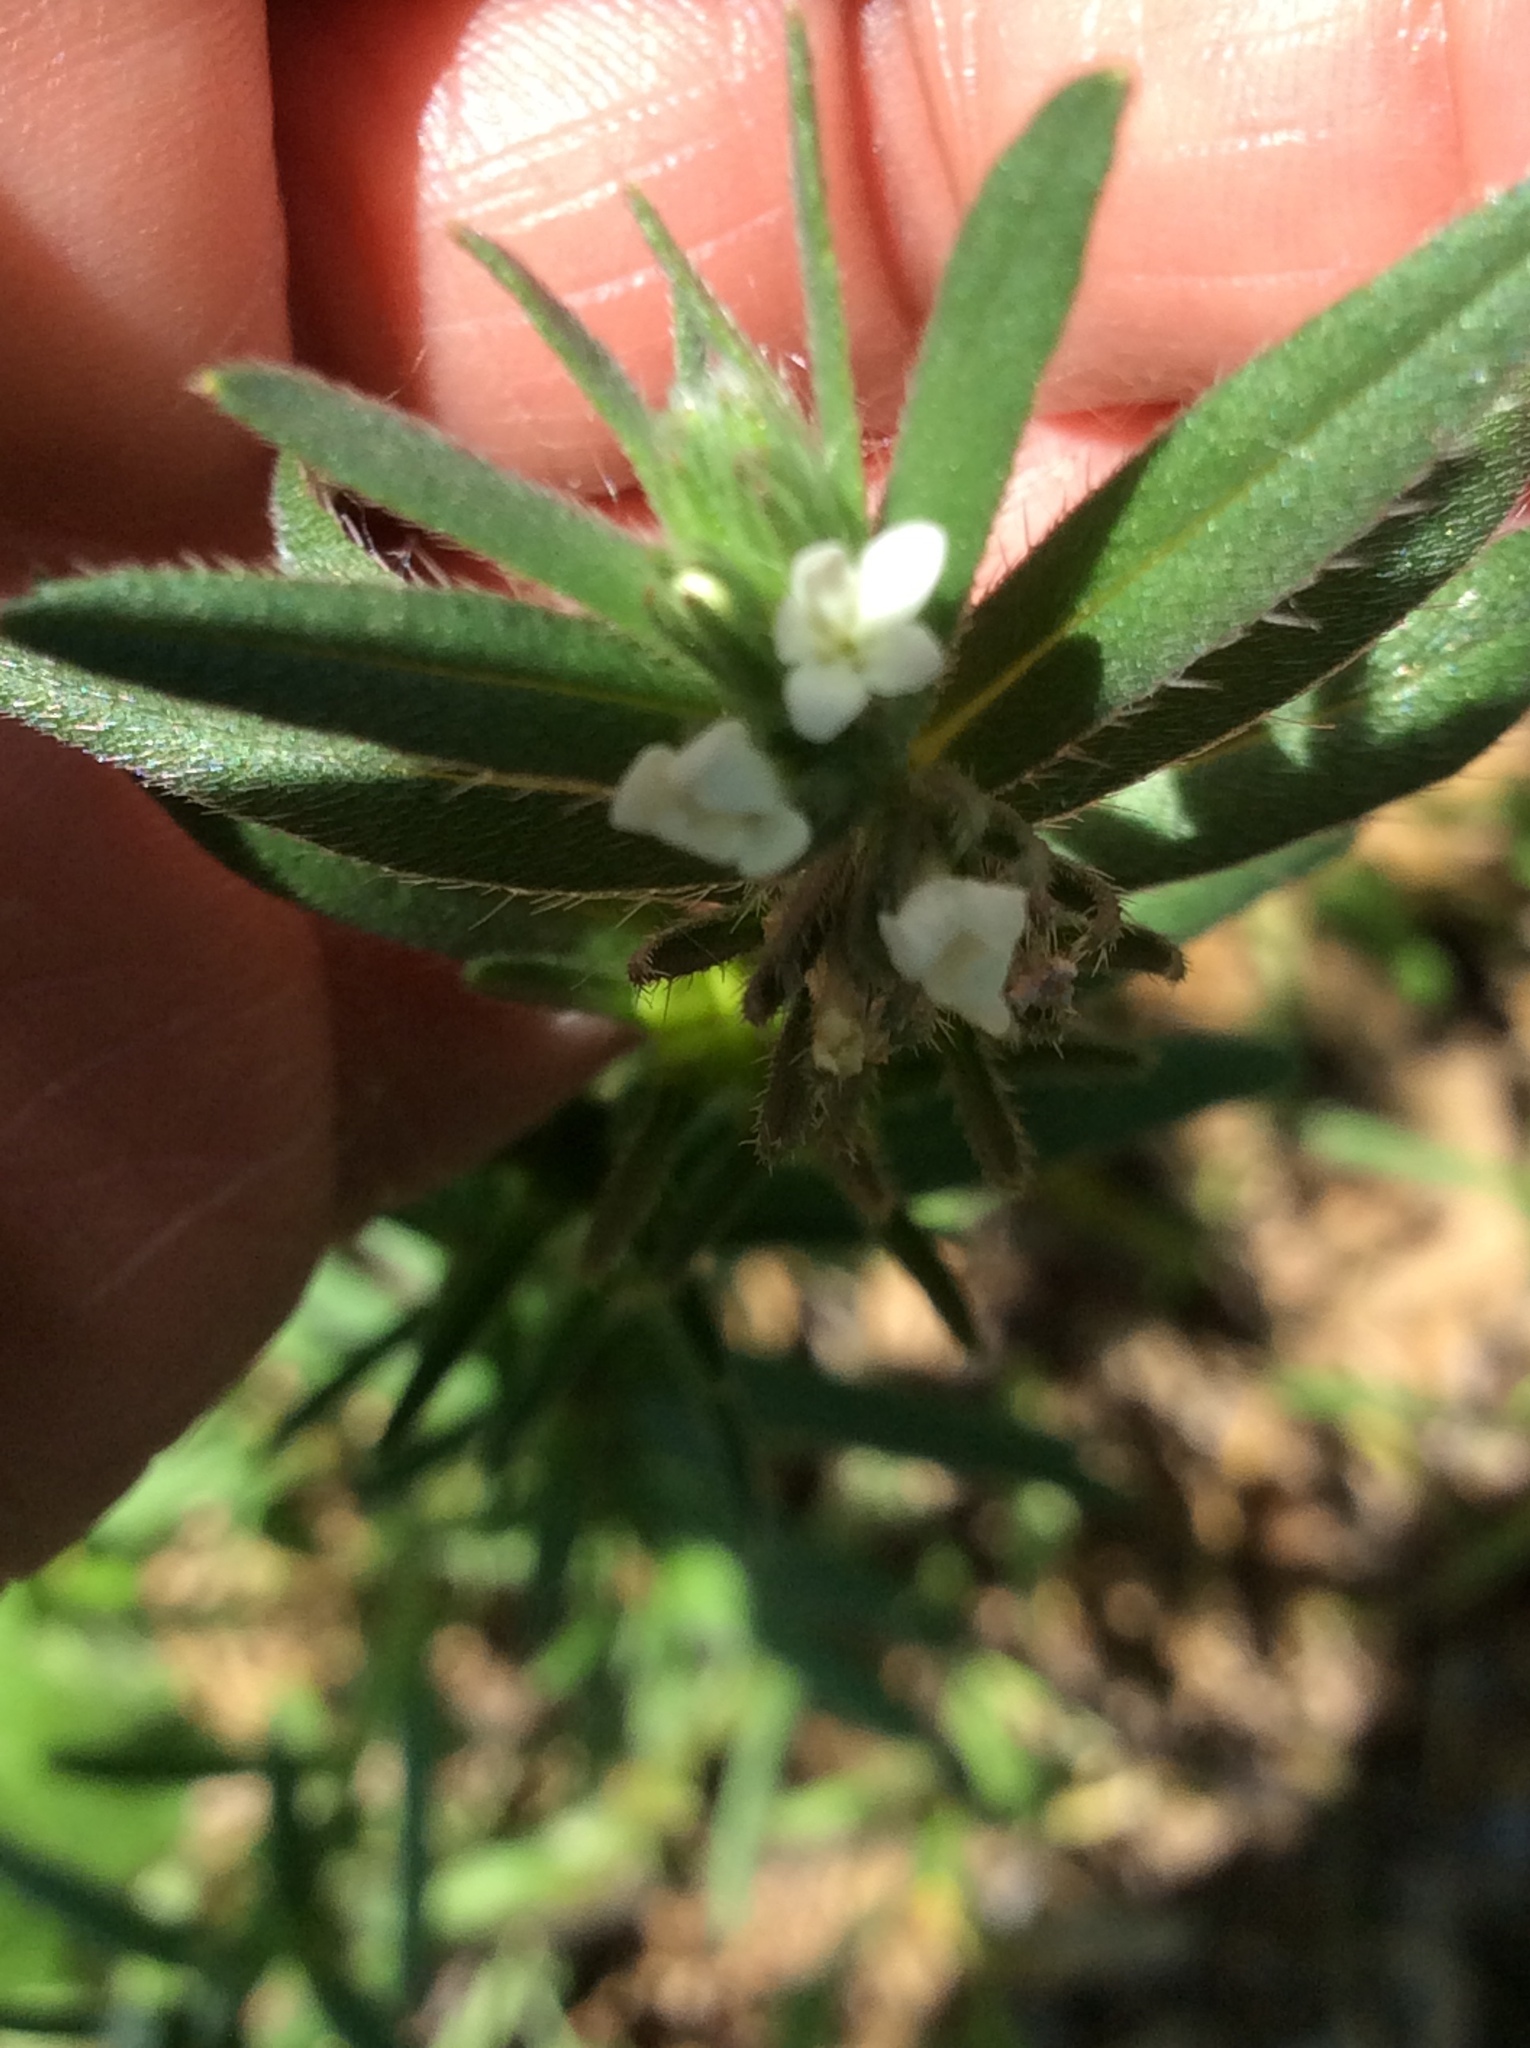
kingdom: Plantae
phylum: Tracheophyta
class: Magnoliopsida
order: Boraginales
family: Boraginaceae
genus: Buglossoides
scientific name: Buglossoides arvensis
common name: Corn gromwell
